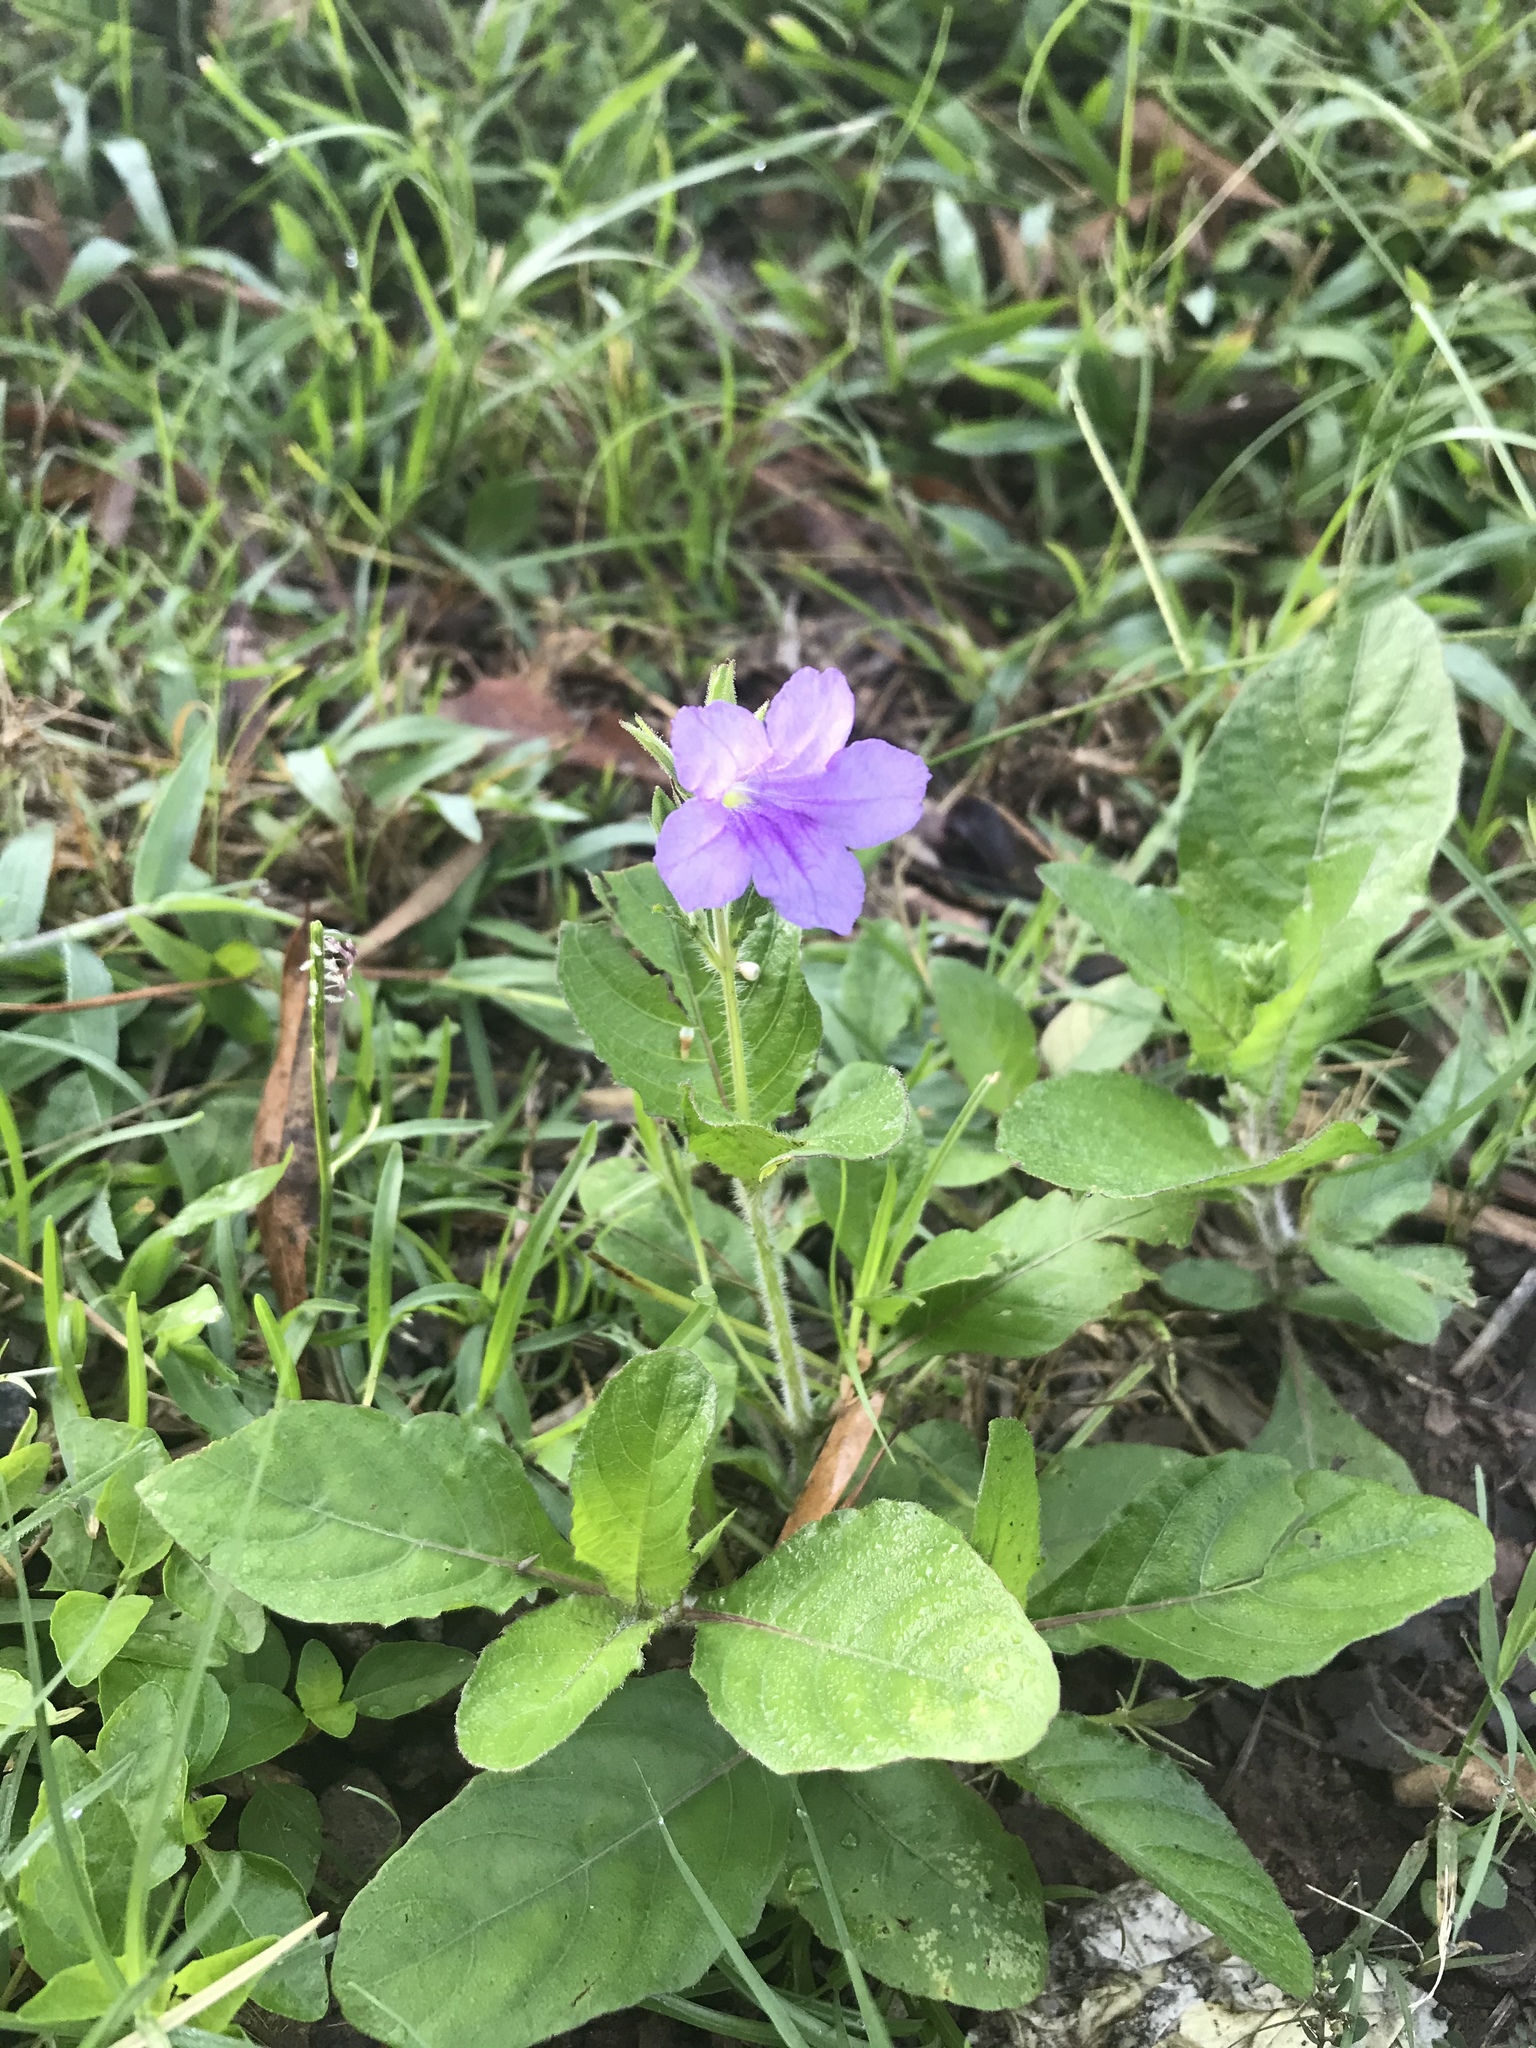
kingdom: Plantae
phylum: Tracheophyta
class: Magnoliopsida
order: Lamiales
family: Acanthaceae
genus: Ruellia
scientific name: Ruellia ciliatiflora
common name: Hairyflower wild petunia
